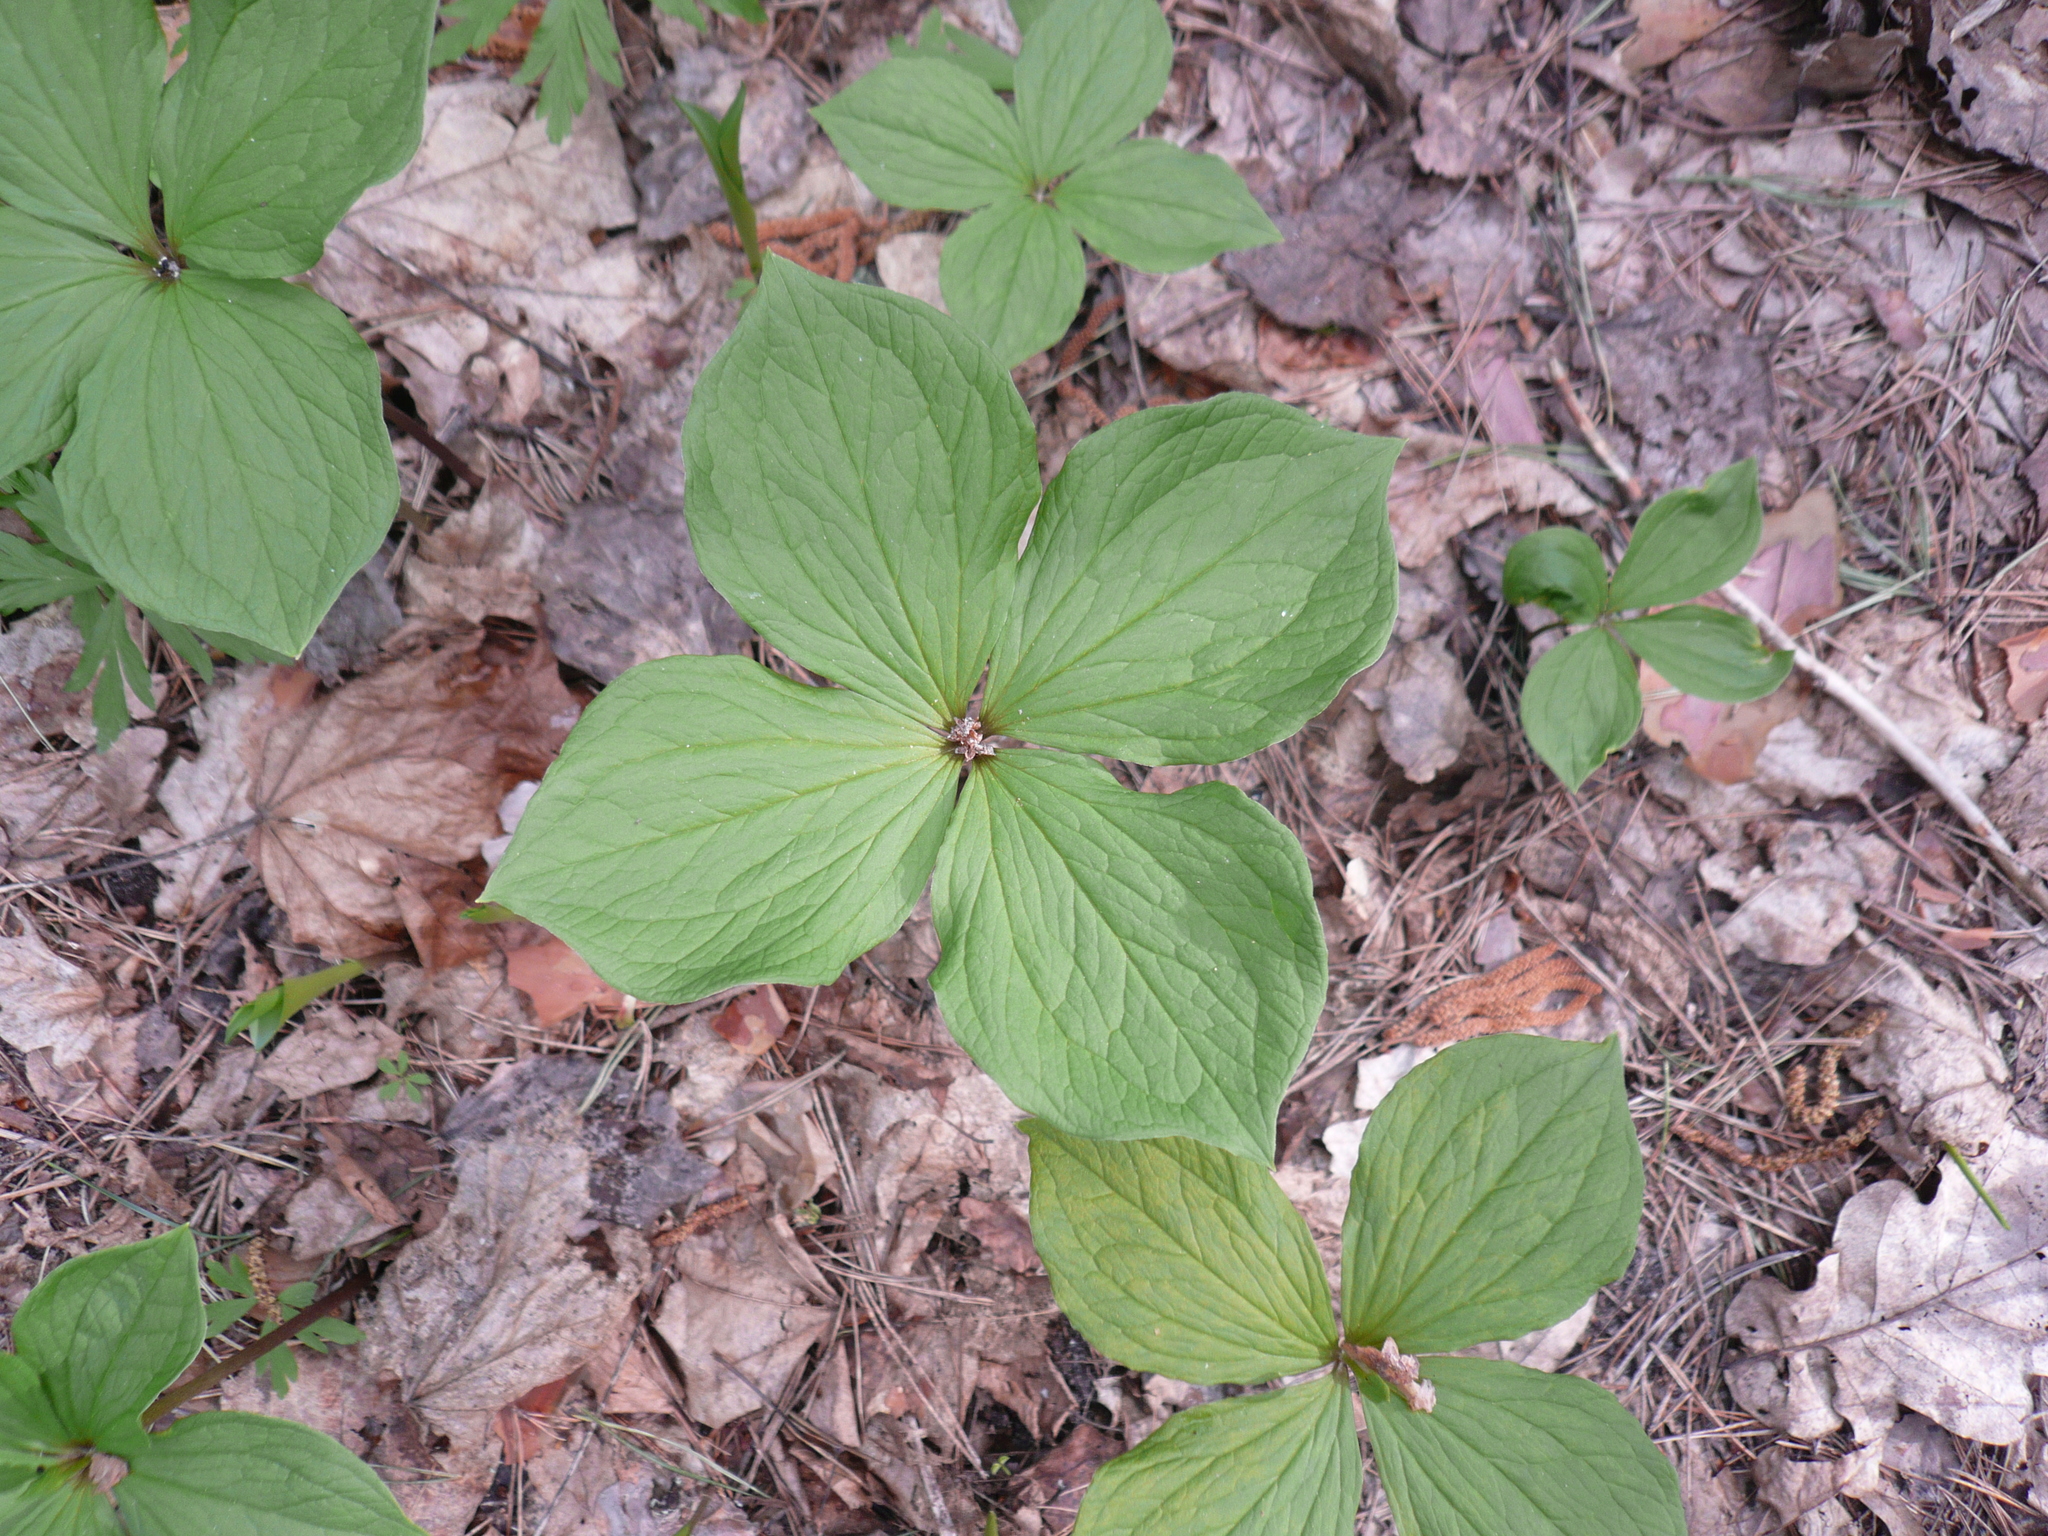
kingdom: Plantae
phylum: Tracheophyta
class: Liliopsida
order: Liliales
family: Melanthiaceae
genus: Paris
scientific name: Paris quadrifolia
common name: Herb-paris
